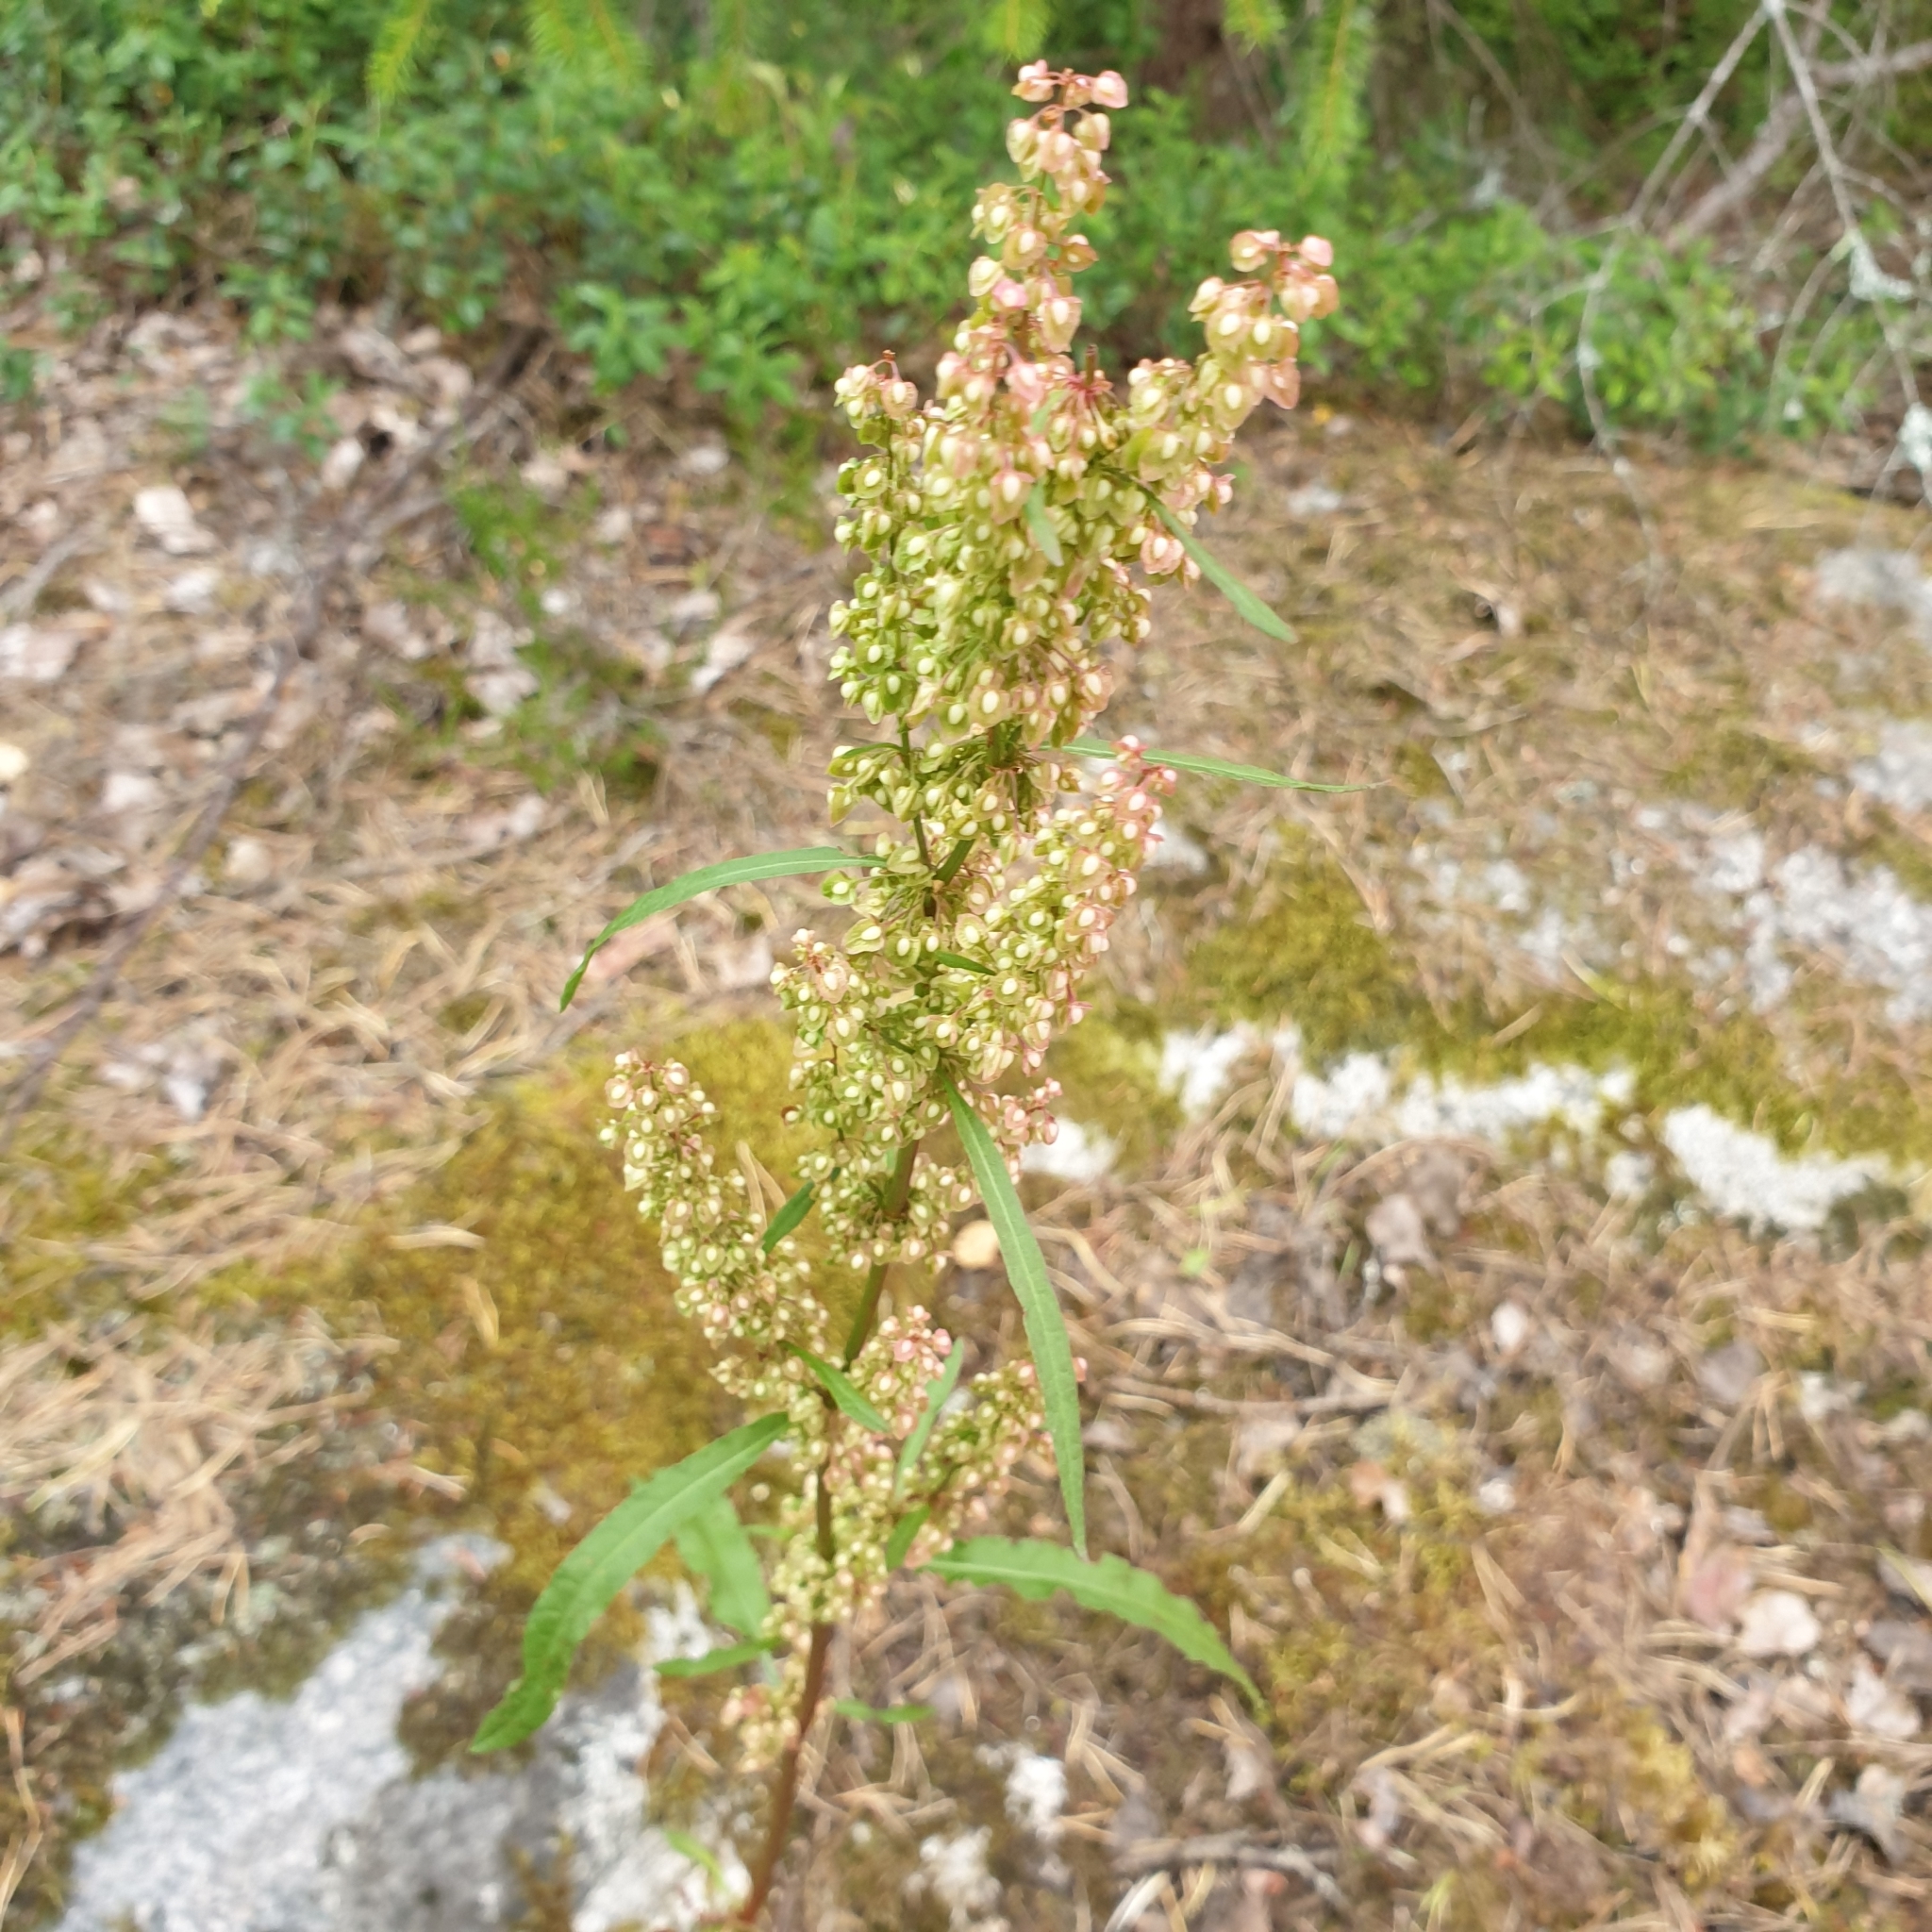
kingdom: Plantae
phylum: Tracheophyta
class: Magnoliopsida
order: Caryophyllales
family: Polygonaceae
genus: Rumex
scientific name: Rumex crispus
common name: Curled dock
